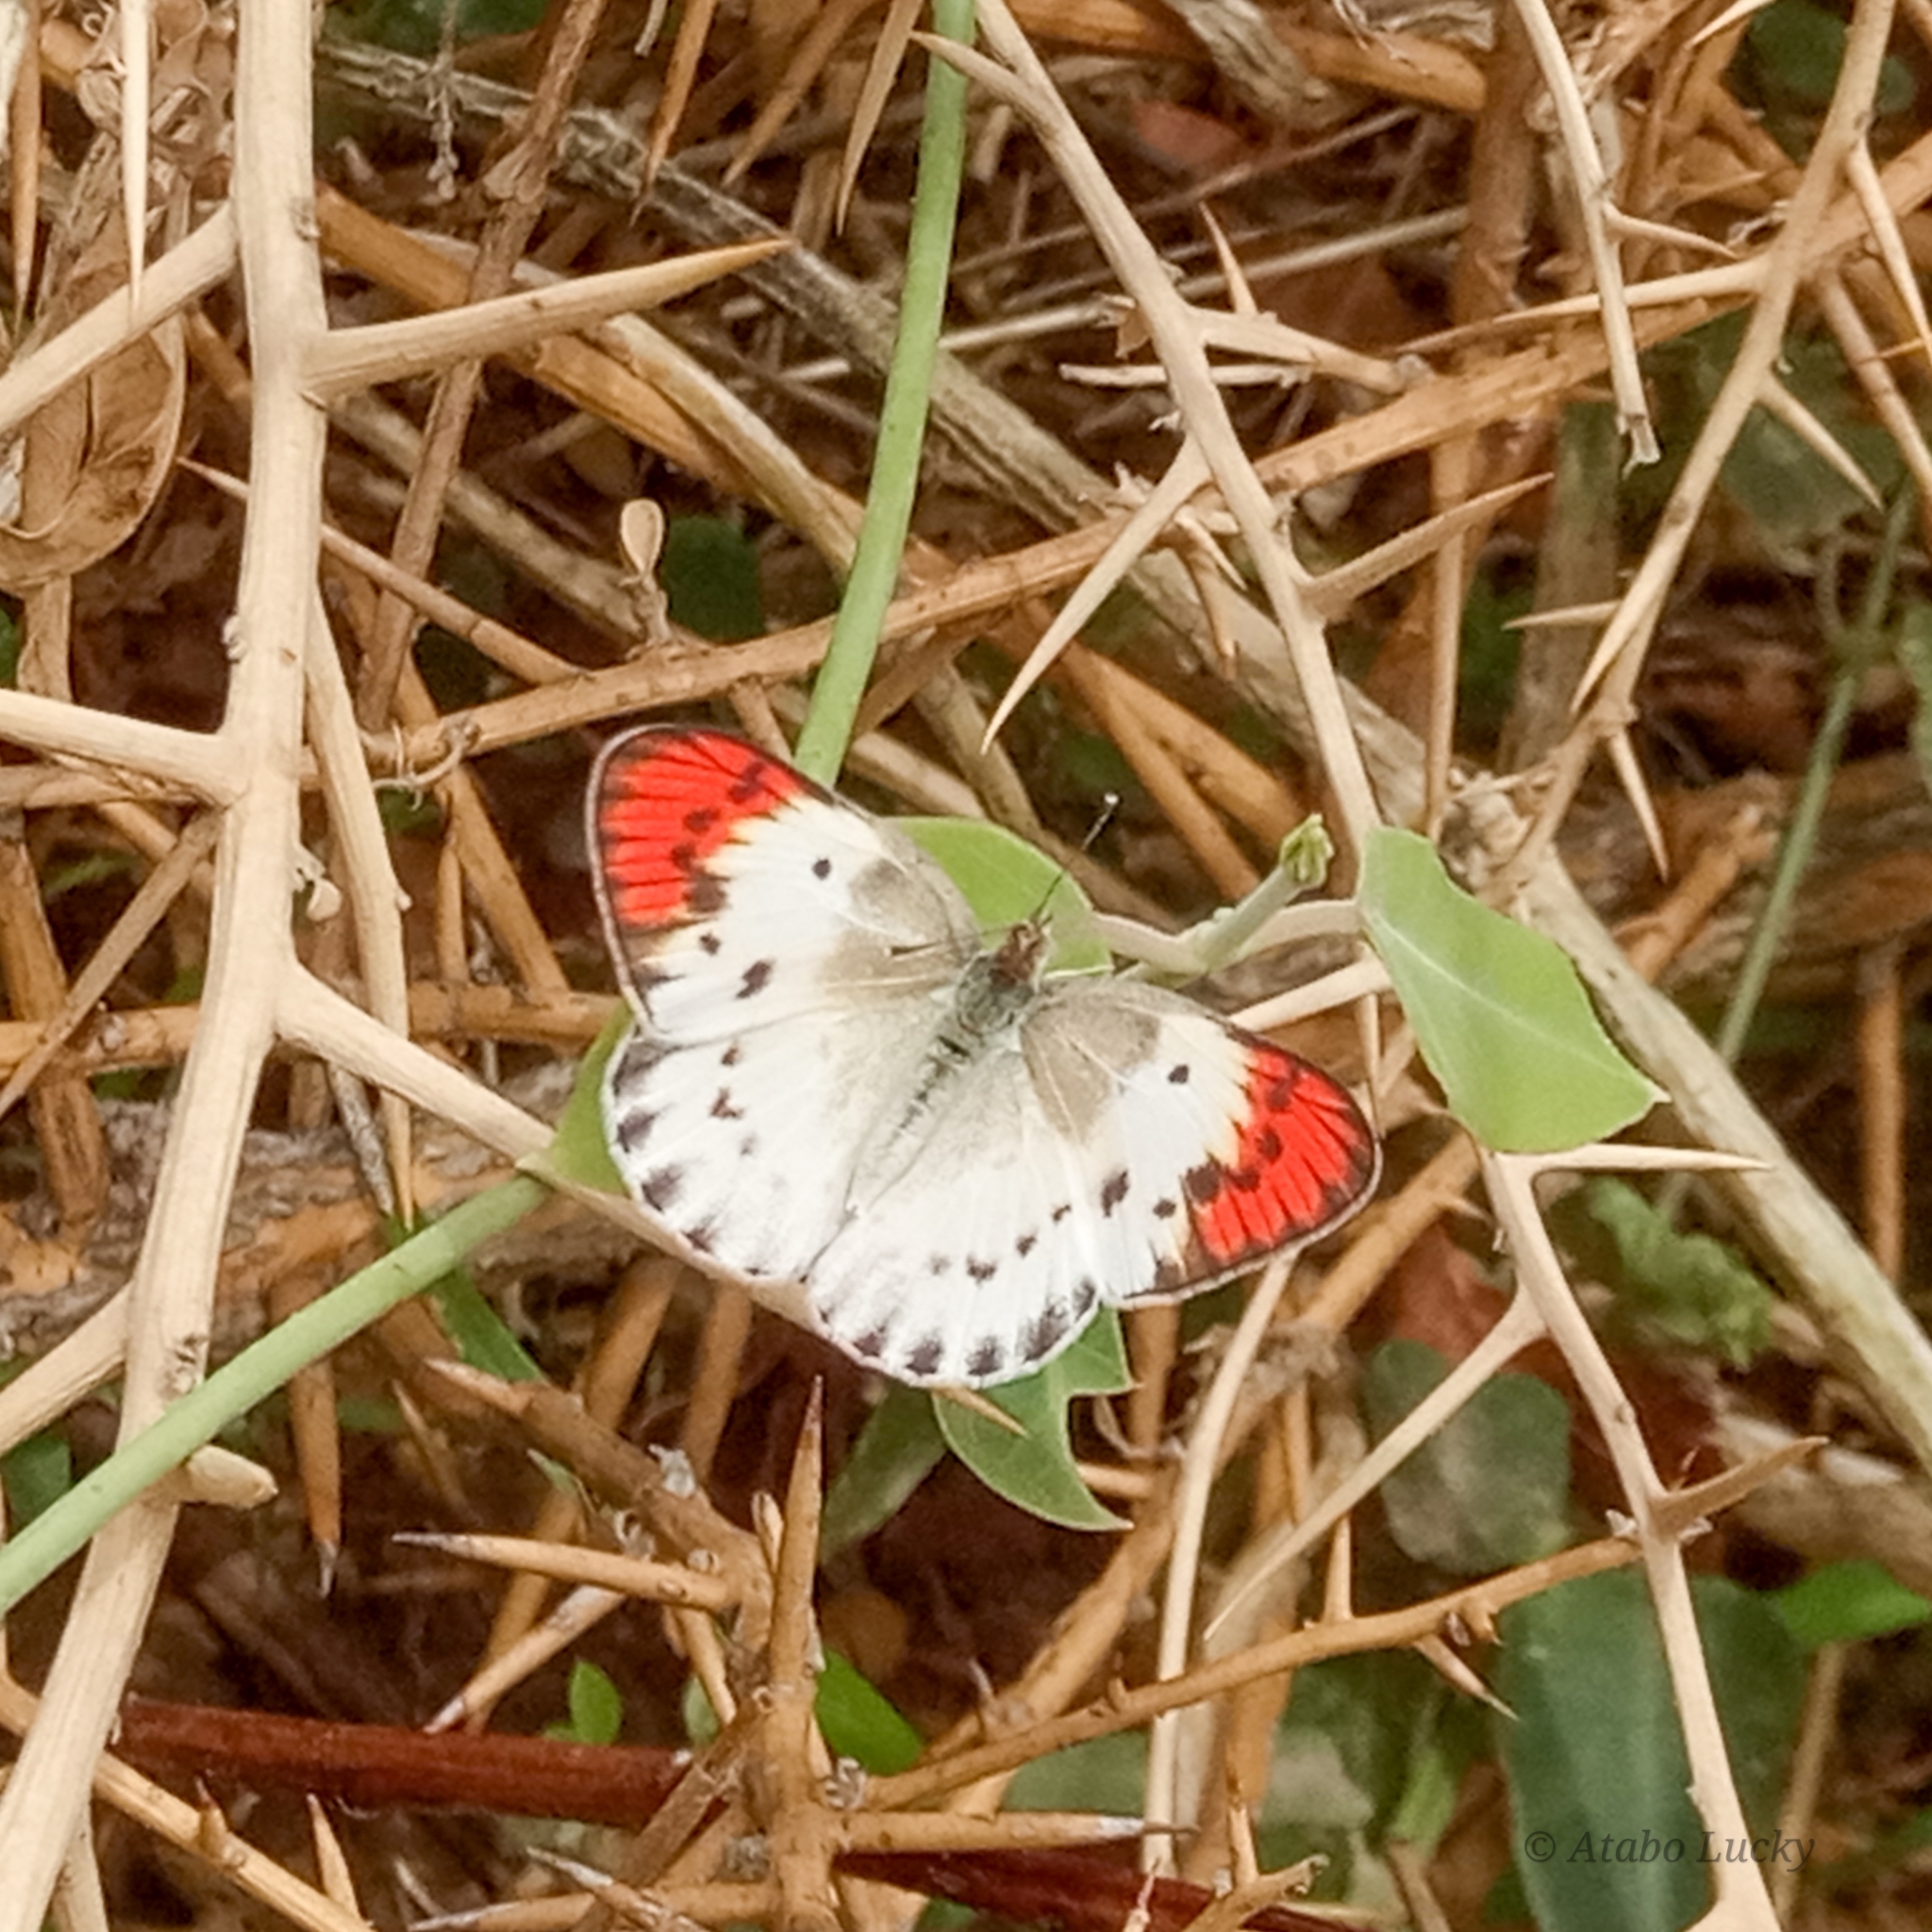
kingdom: Animalia
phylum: Arthropoda
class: Insecta
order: Lepidoptera
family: Pieridae
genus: Colotis
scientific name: Colotis danae
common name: Crimson tip
